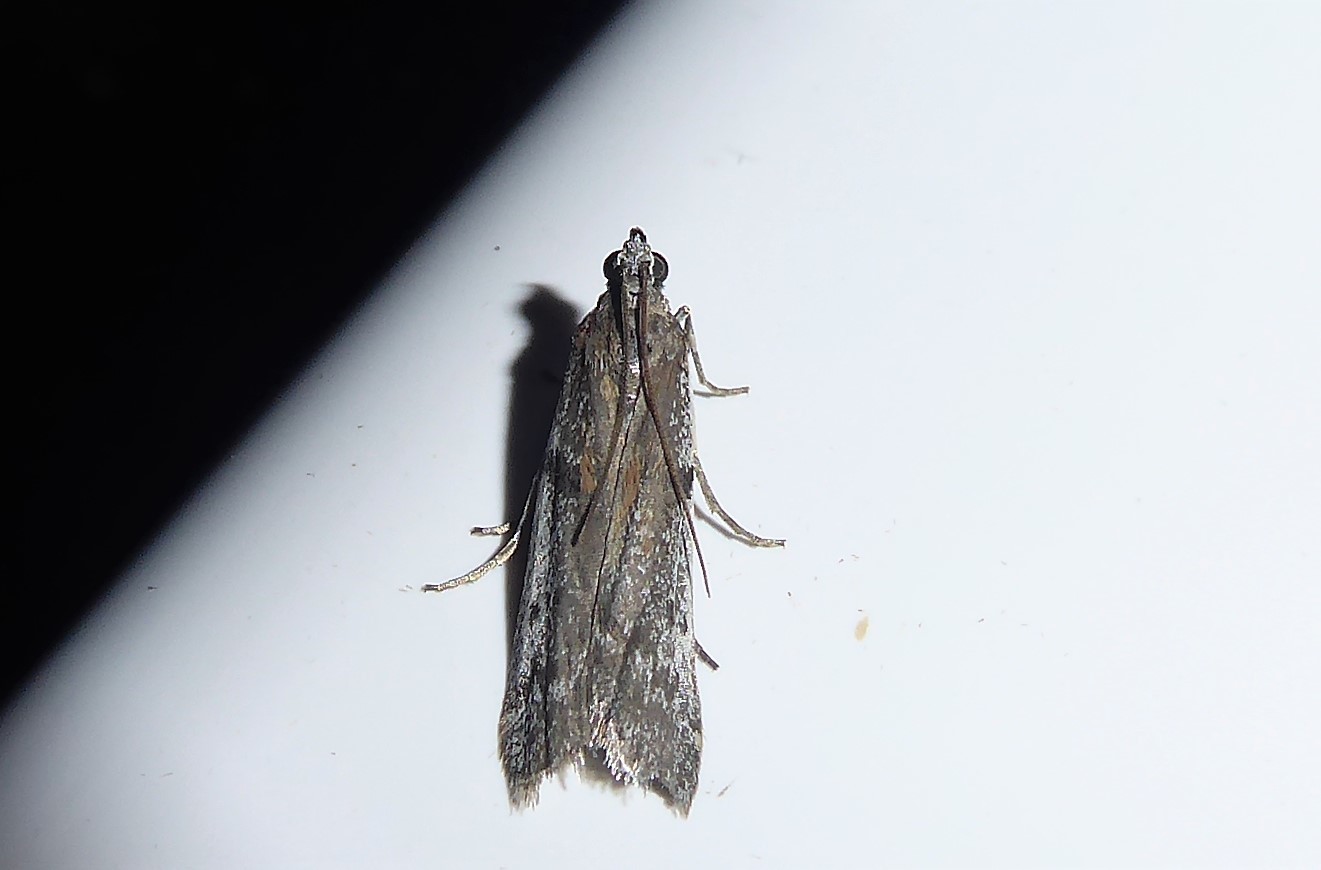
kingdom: Animalia
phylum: Arthropoda
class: Insecta
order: Lepidoptera
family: Pyralidae
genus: Patagoniodes
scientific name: Patagoniodes farinaria
